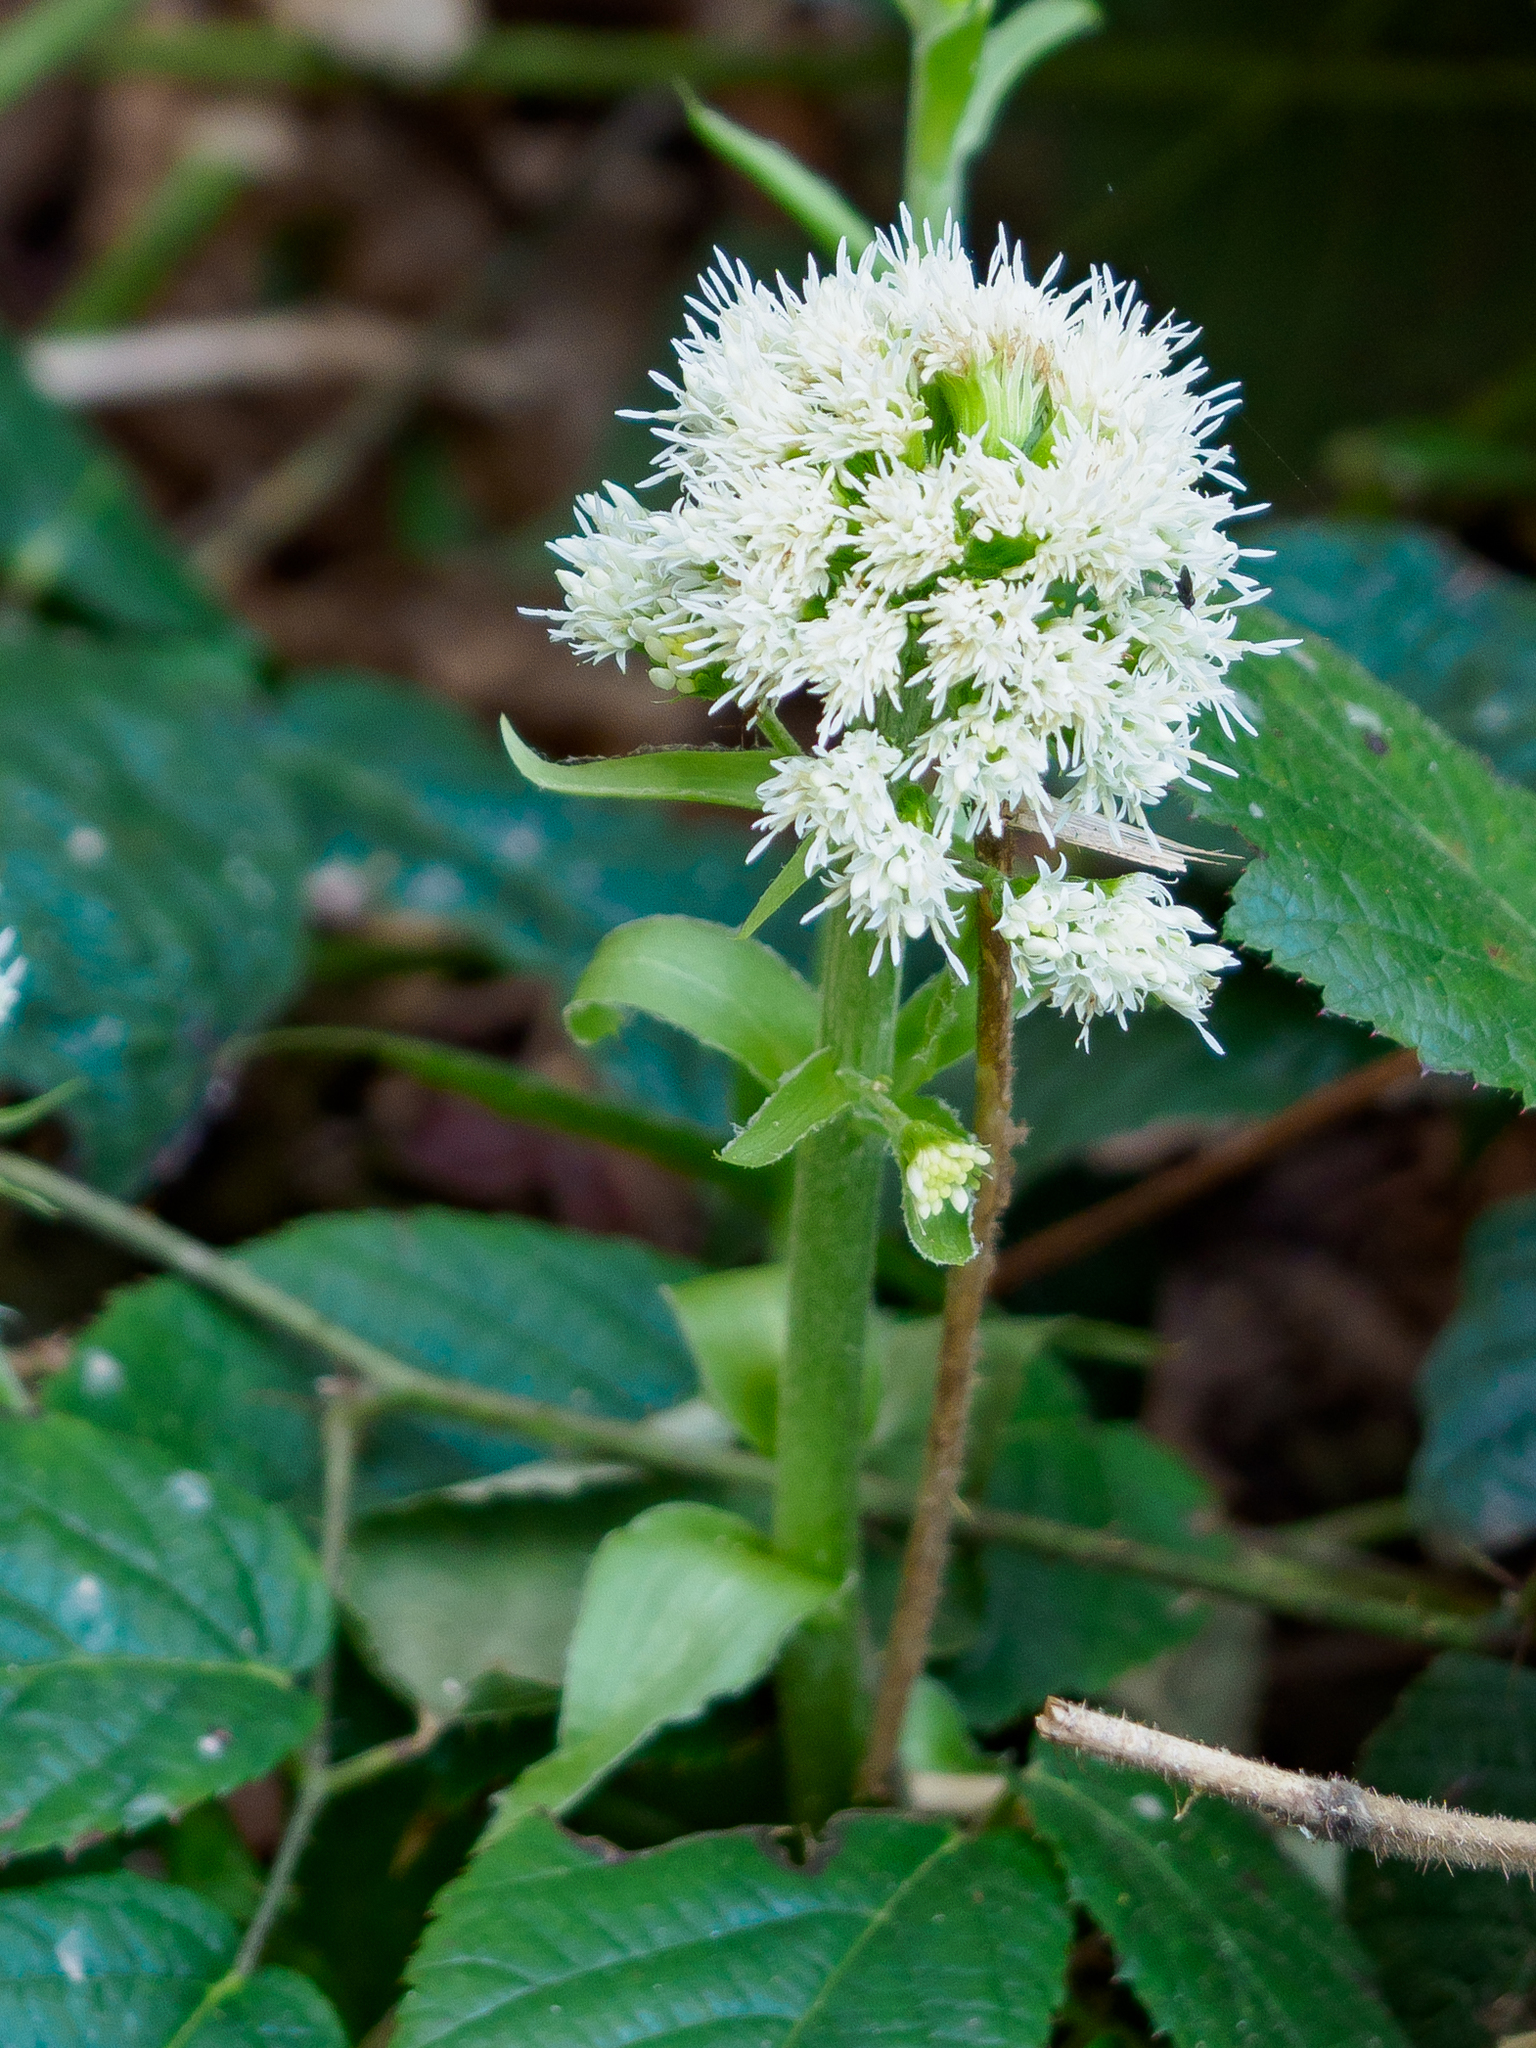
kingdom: Plantae
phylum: Tracheophyta
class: Magnoliopsida
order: Asterales
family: Asteraceae
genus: Petasites
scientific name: Petasites albus
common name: White butterbur
